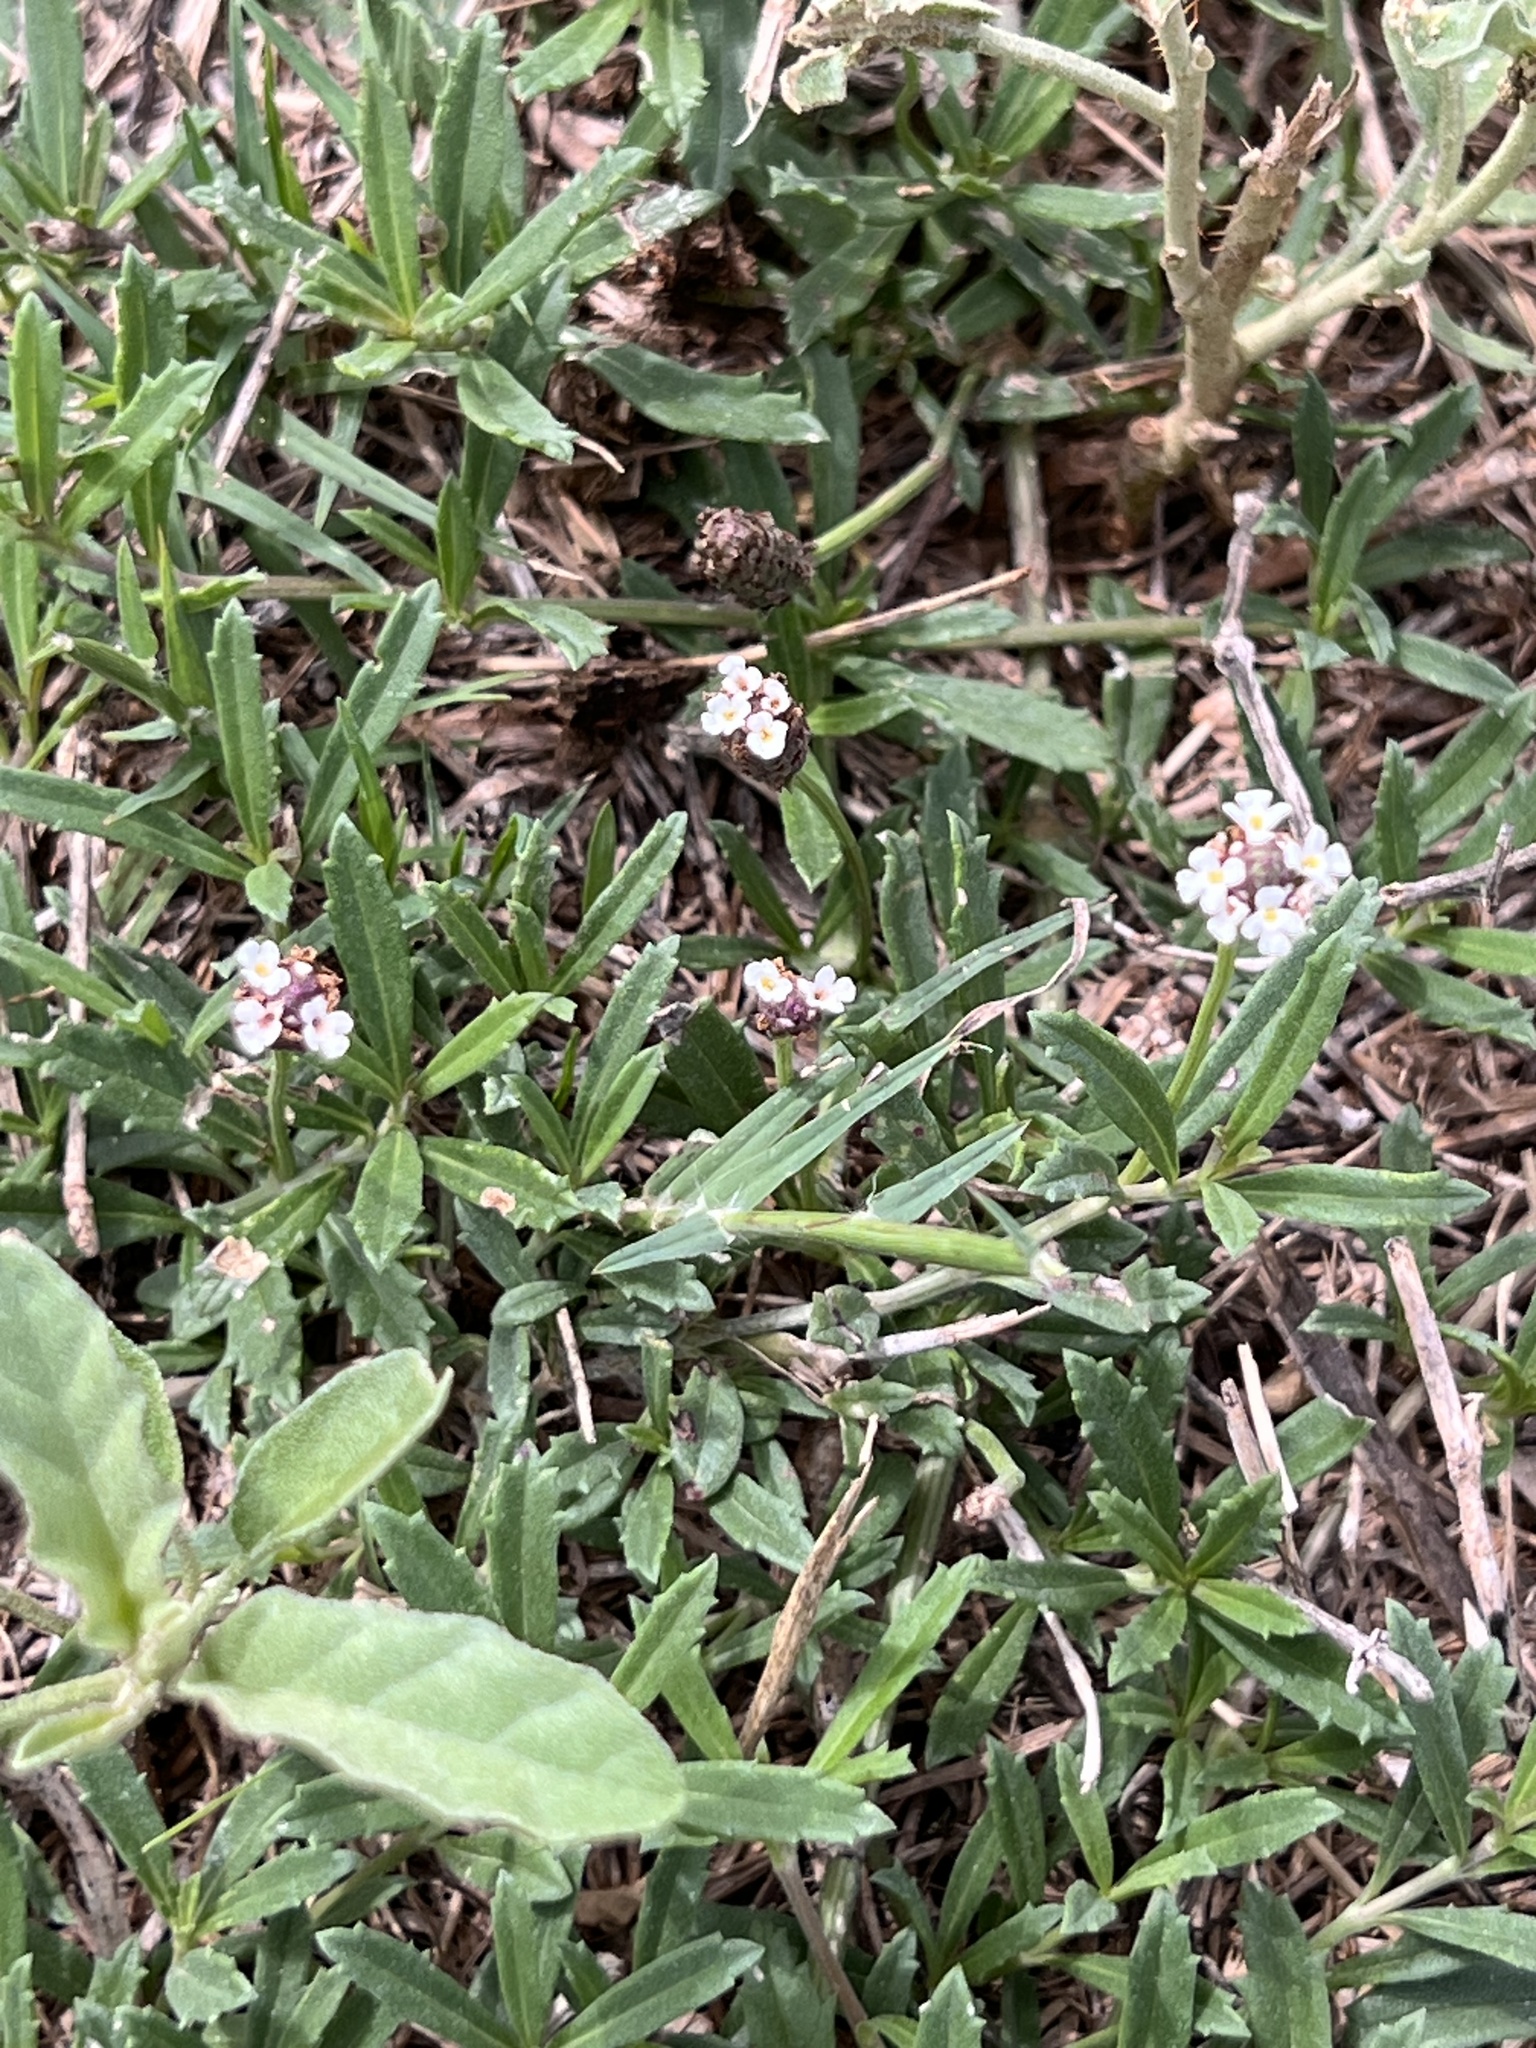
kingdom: Plantae
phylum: Tracheophyta
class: Magnoliopsida
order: Lamiales
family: Verbenaceae
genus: Phyla
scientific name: Phyla nodiflora
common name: Frogfruit
